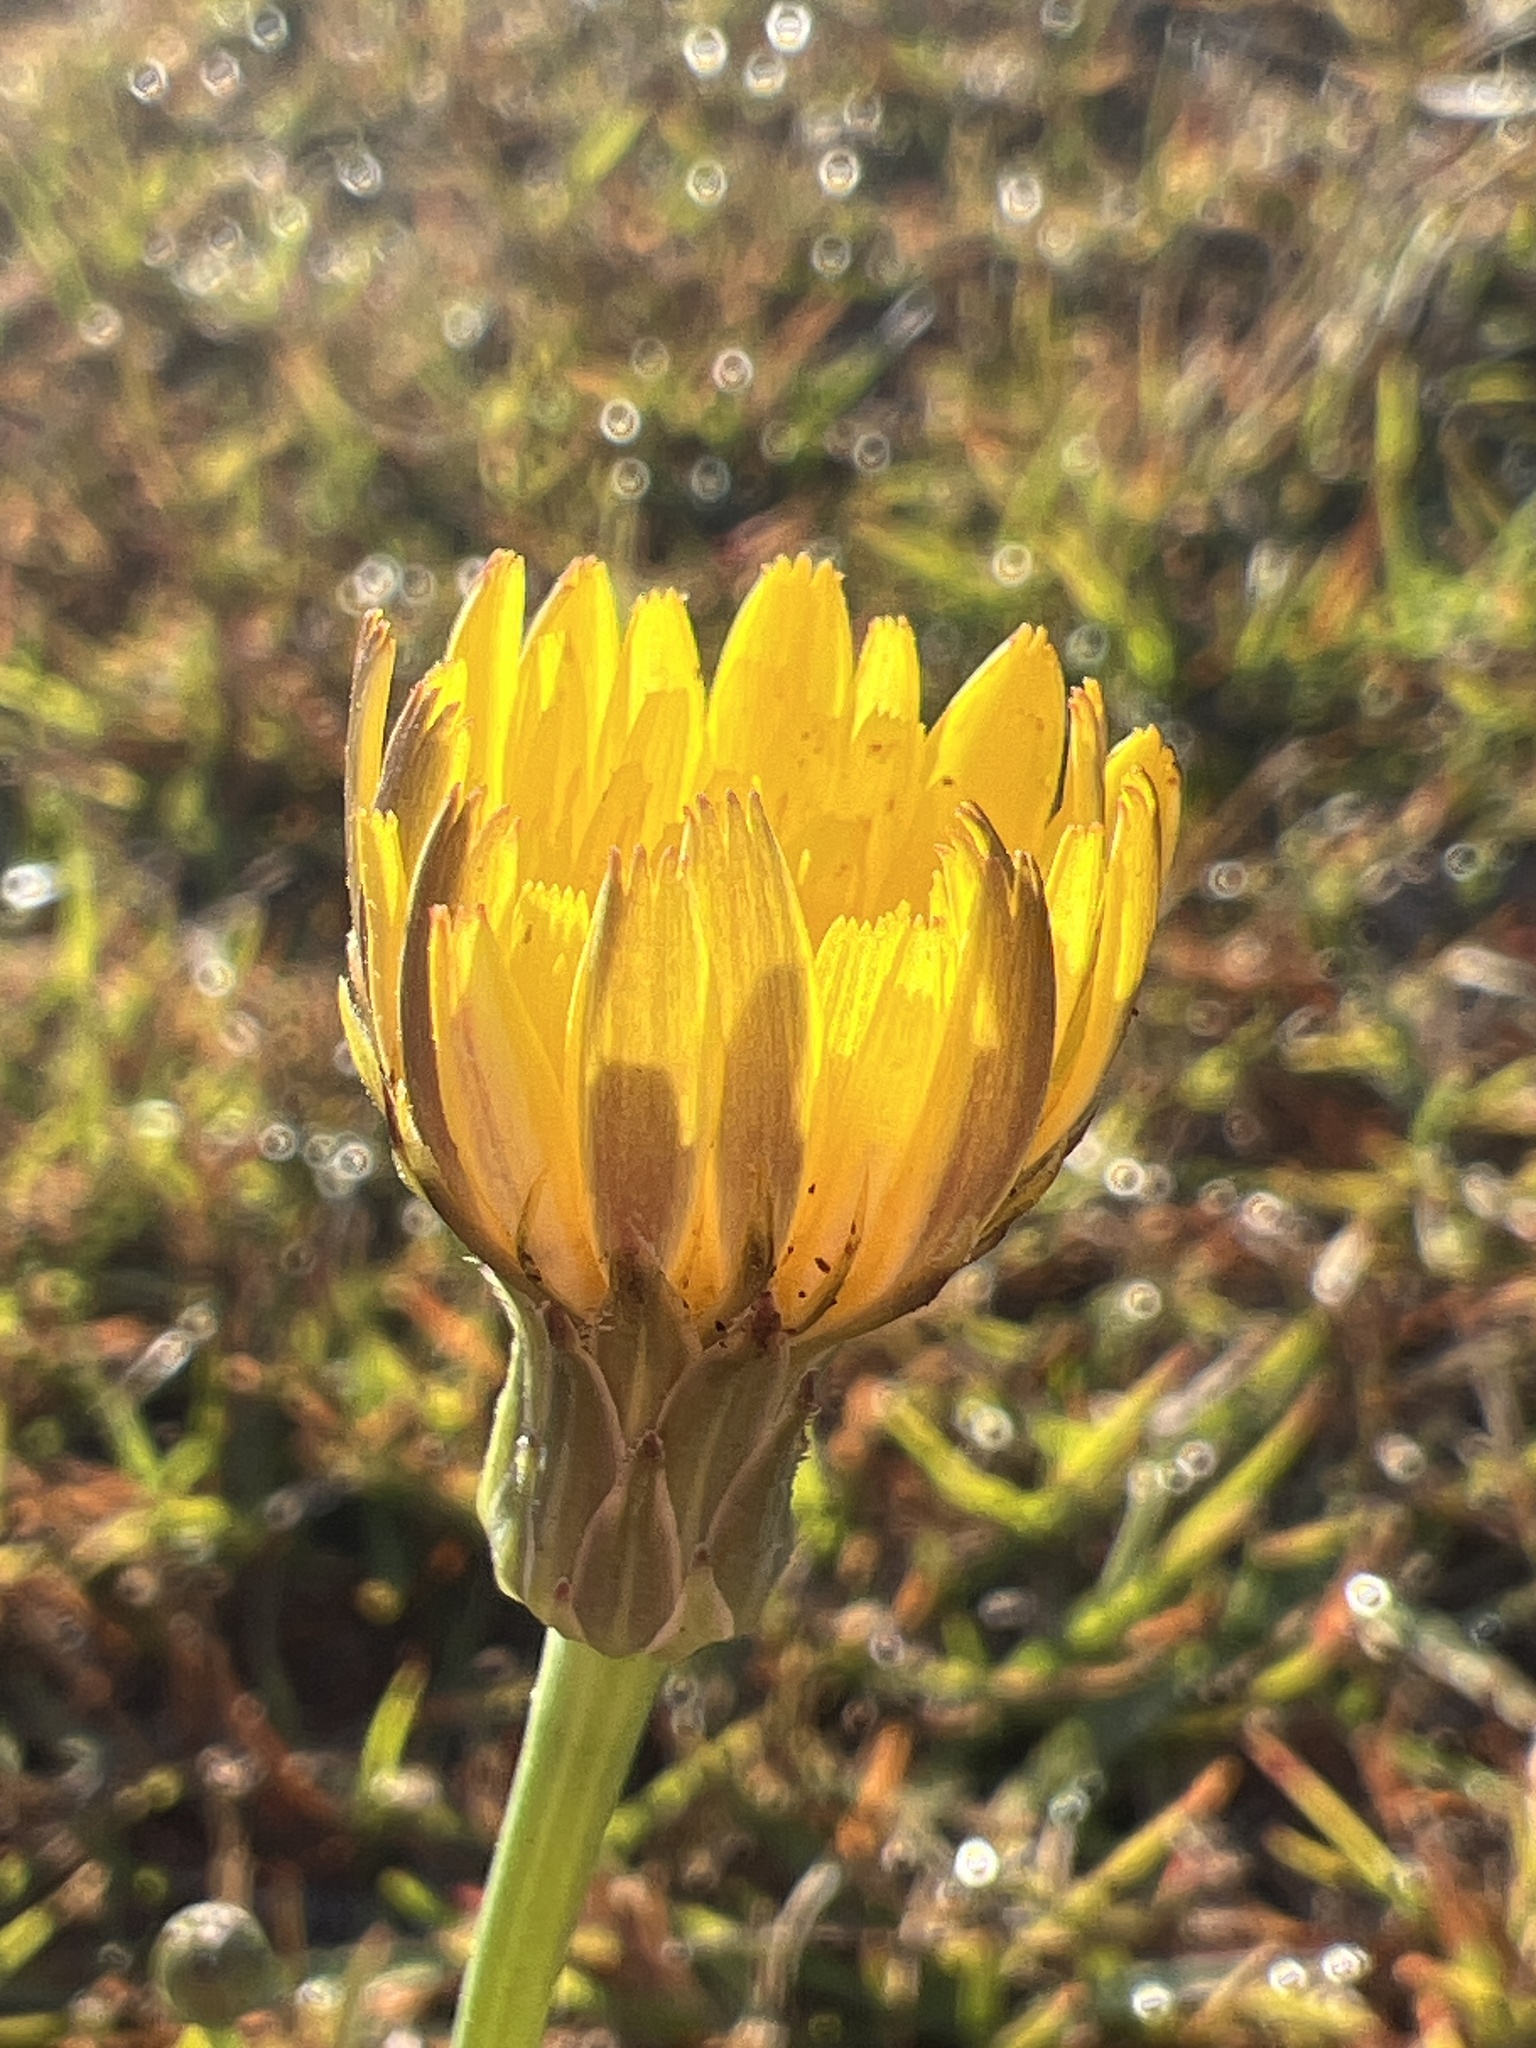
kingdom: Plantae
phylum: Tracheophyta
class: Magnoliopsida
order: Asterales
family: Asteraceae
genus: Hypochaeris
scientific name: Hypochaeris radicata
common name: Flatweed
